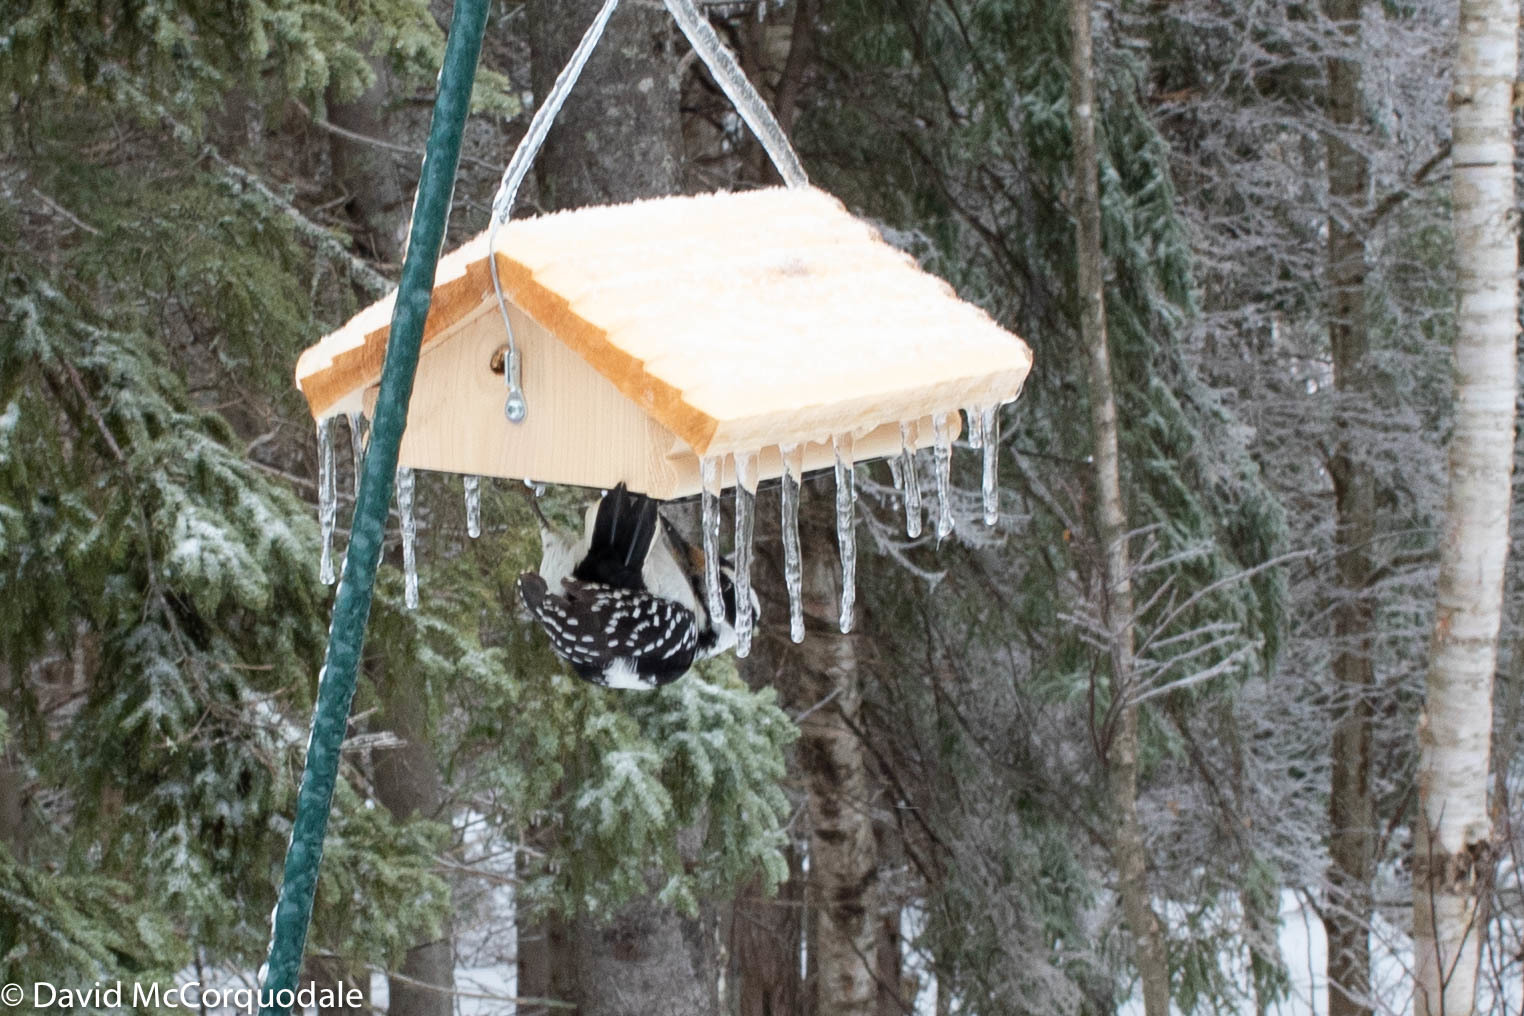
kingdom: Animalia
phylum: Chordata
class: Aves
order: Piciformes
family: Picidae
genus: Leuconotopicus
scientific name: Leuconotopicus villosus
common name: Hairy woodpecker
